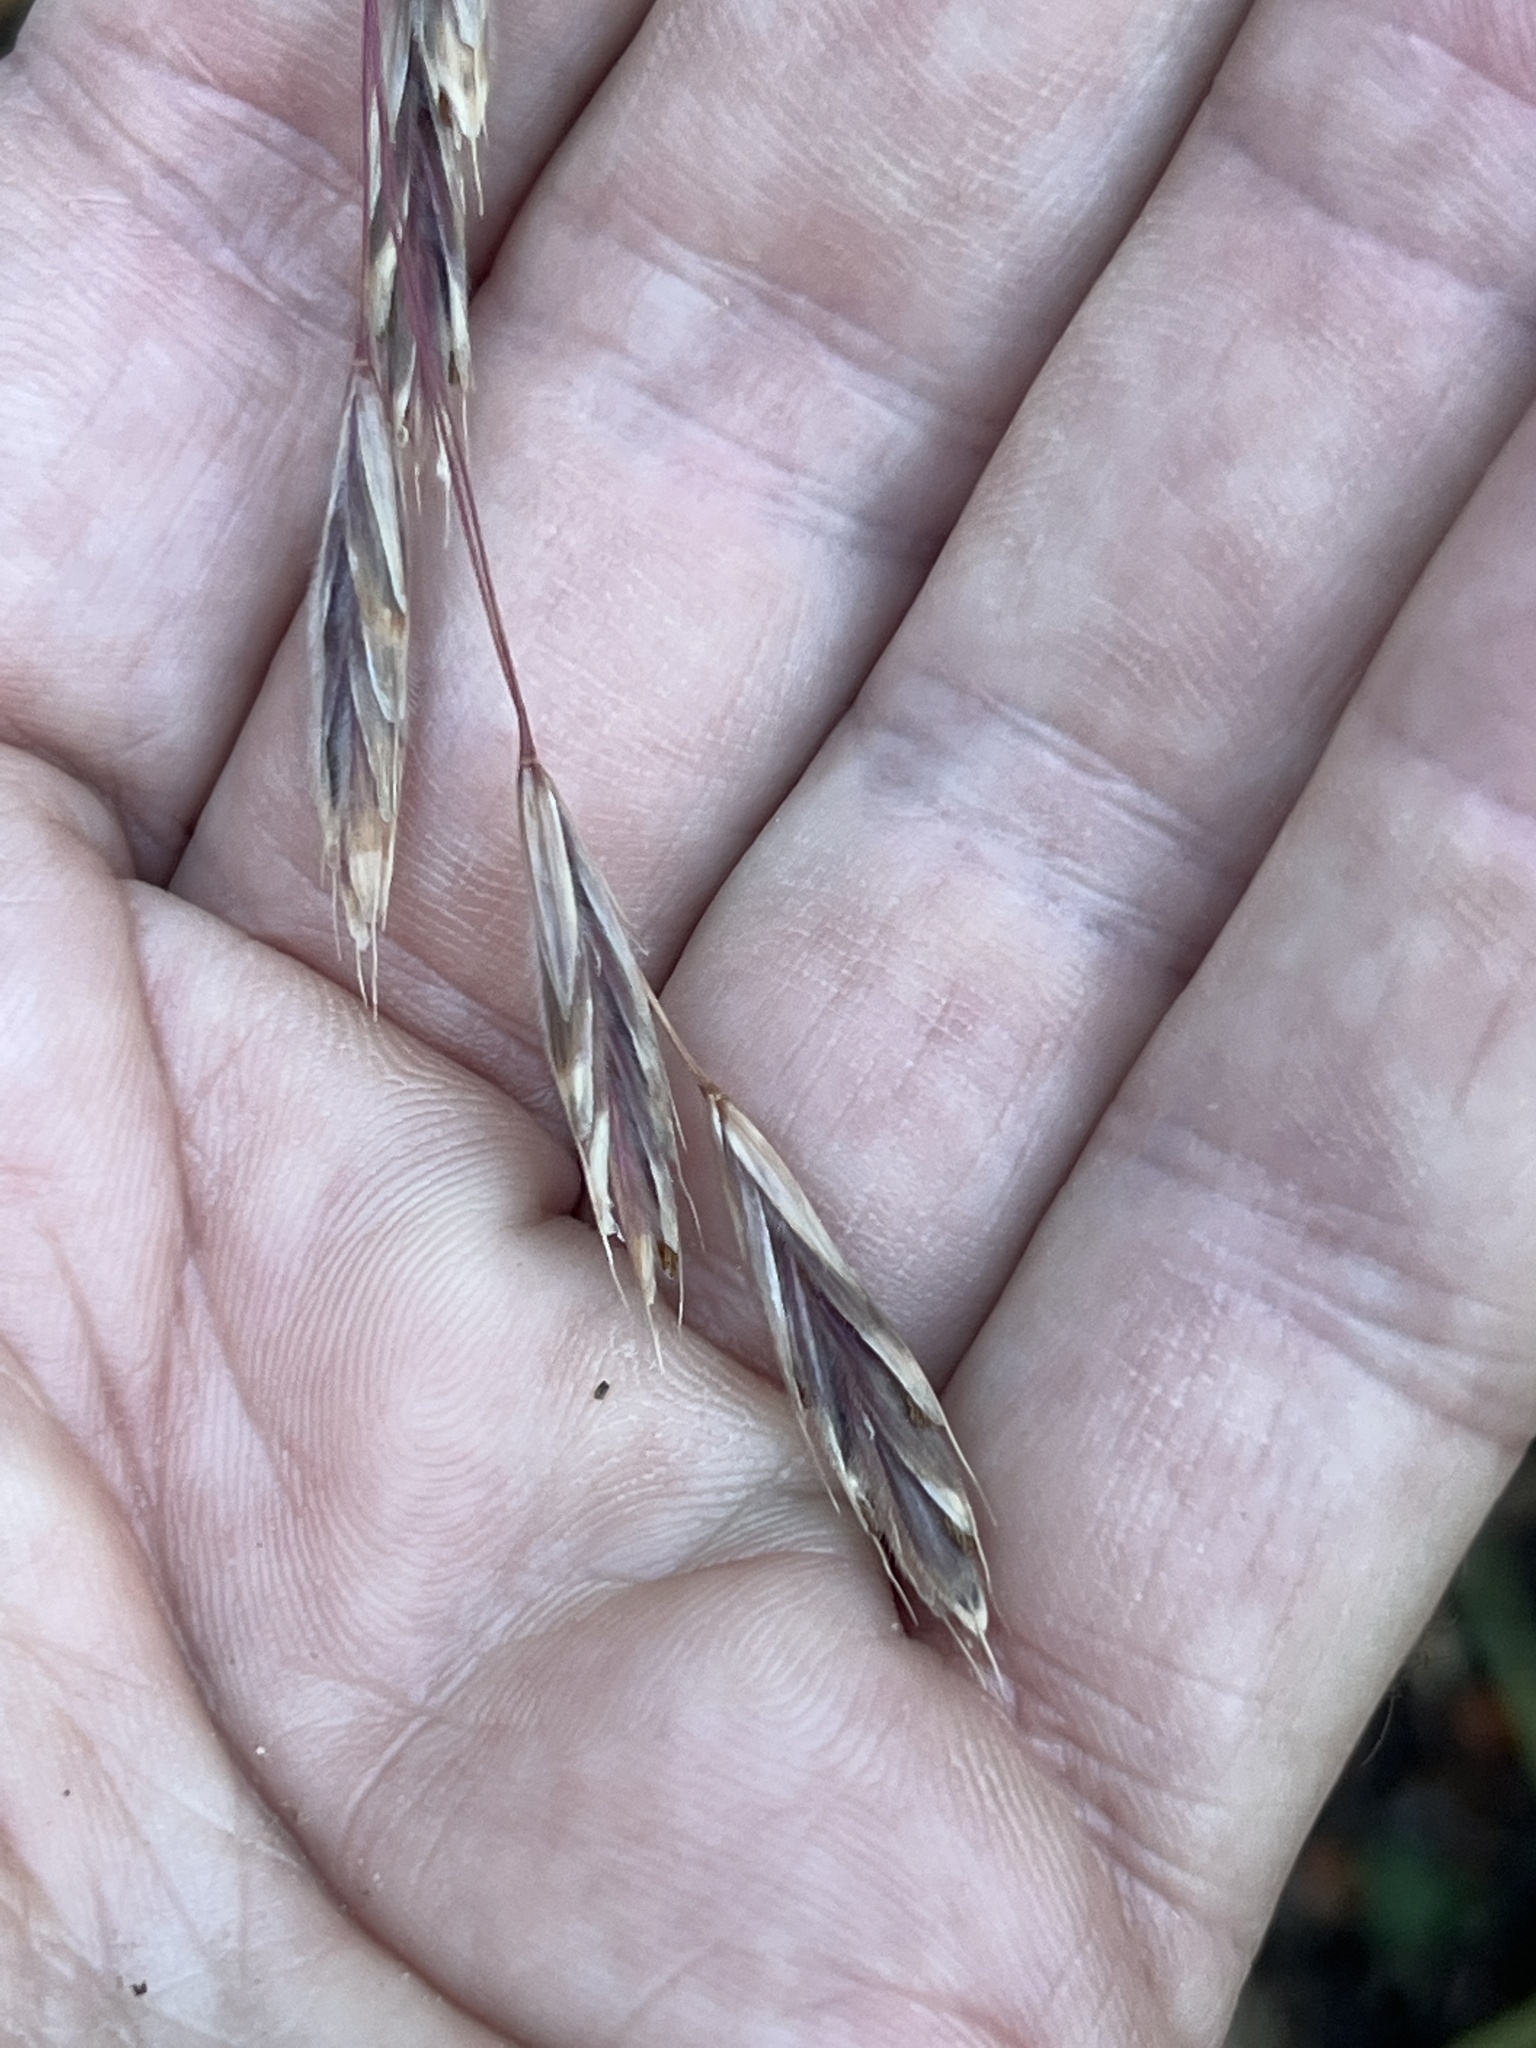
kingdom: Plantae
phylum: Tracheophyta
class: Liliopsida
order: Poales
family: Poaceae
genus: Bromus
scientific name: Bromus ciliatus
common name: Fringe brome
